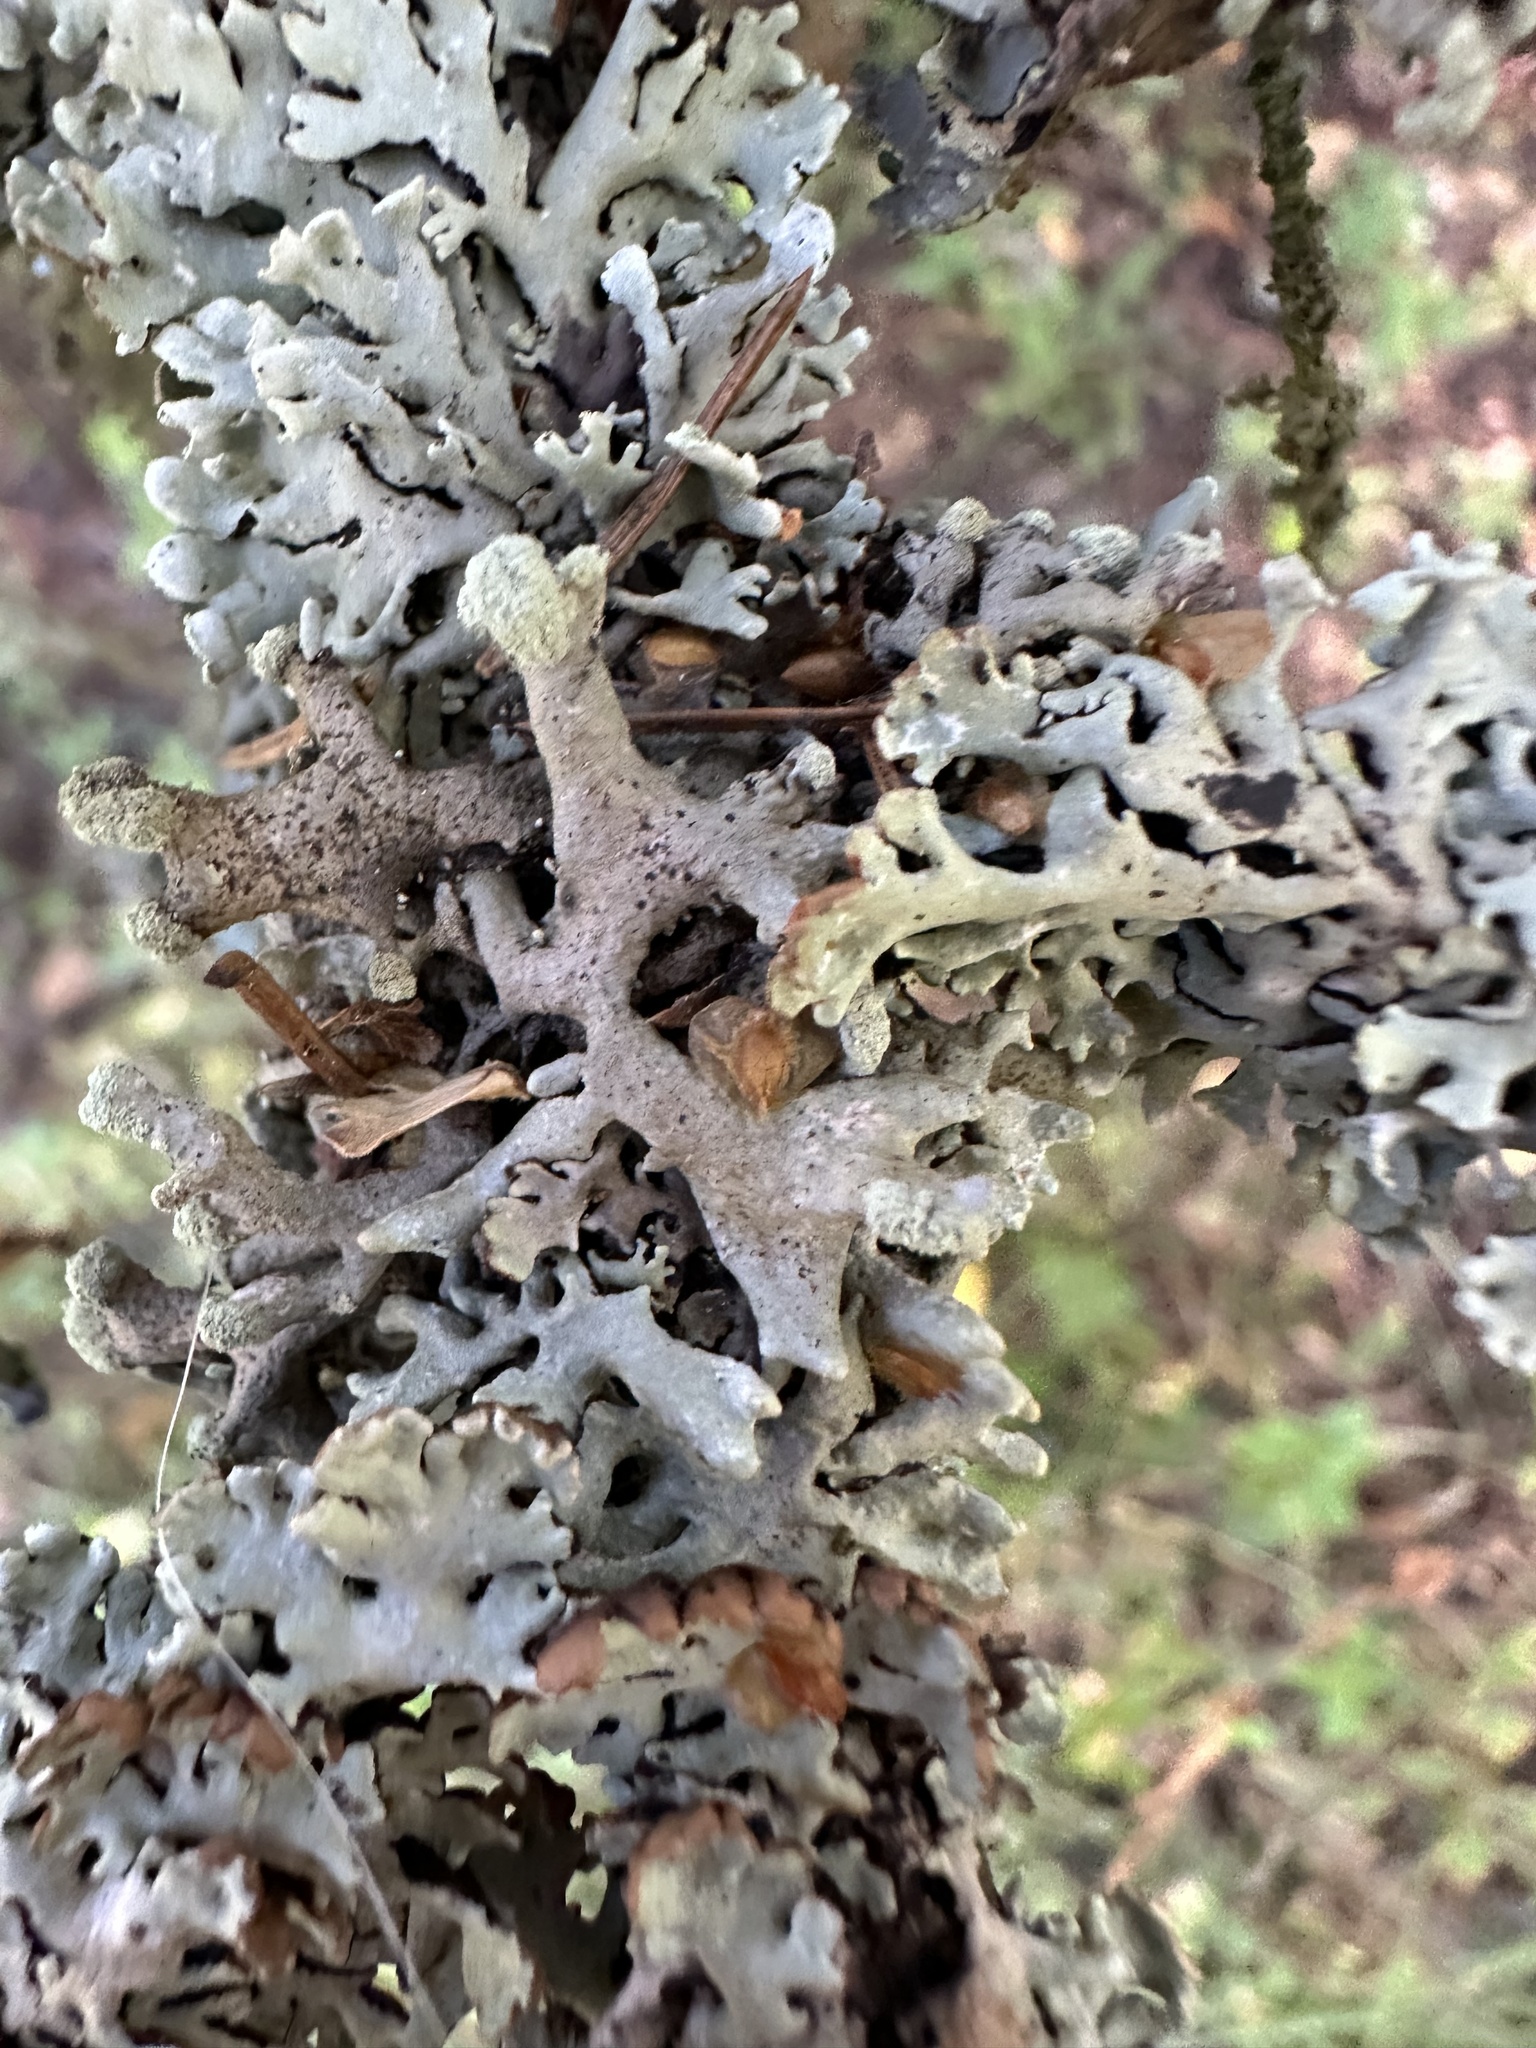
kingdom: Fungi
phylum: Ascomycota
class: Lecanoromycetes
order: Lecanorales
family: Parmeliaceae
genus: Hypogymnia
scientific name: Hypogymnia tubulosa
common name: Powder-headed tube lichen
